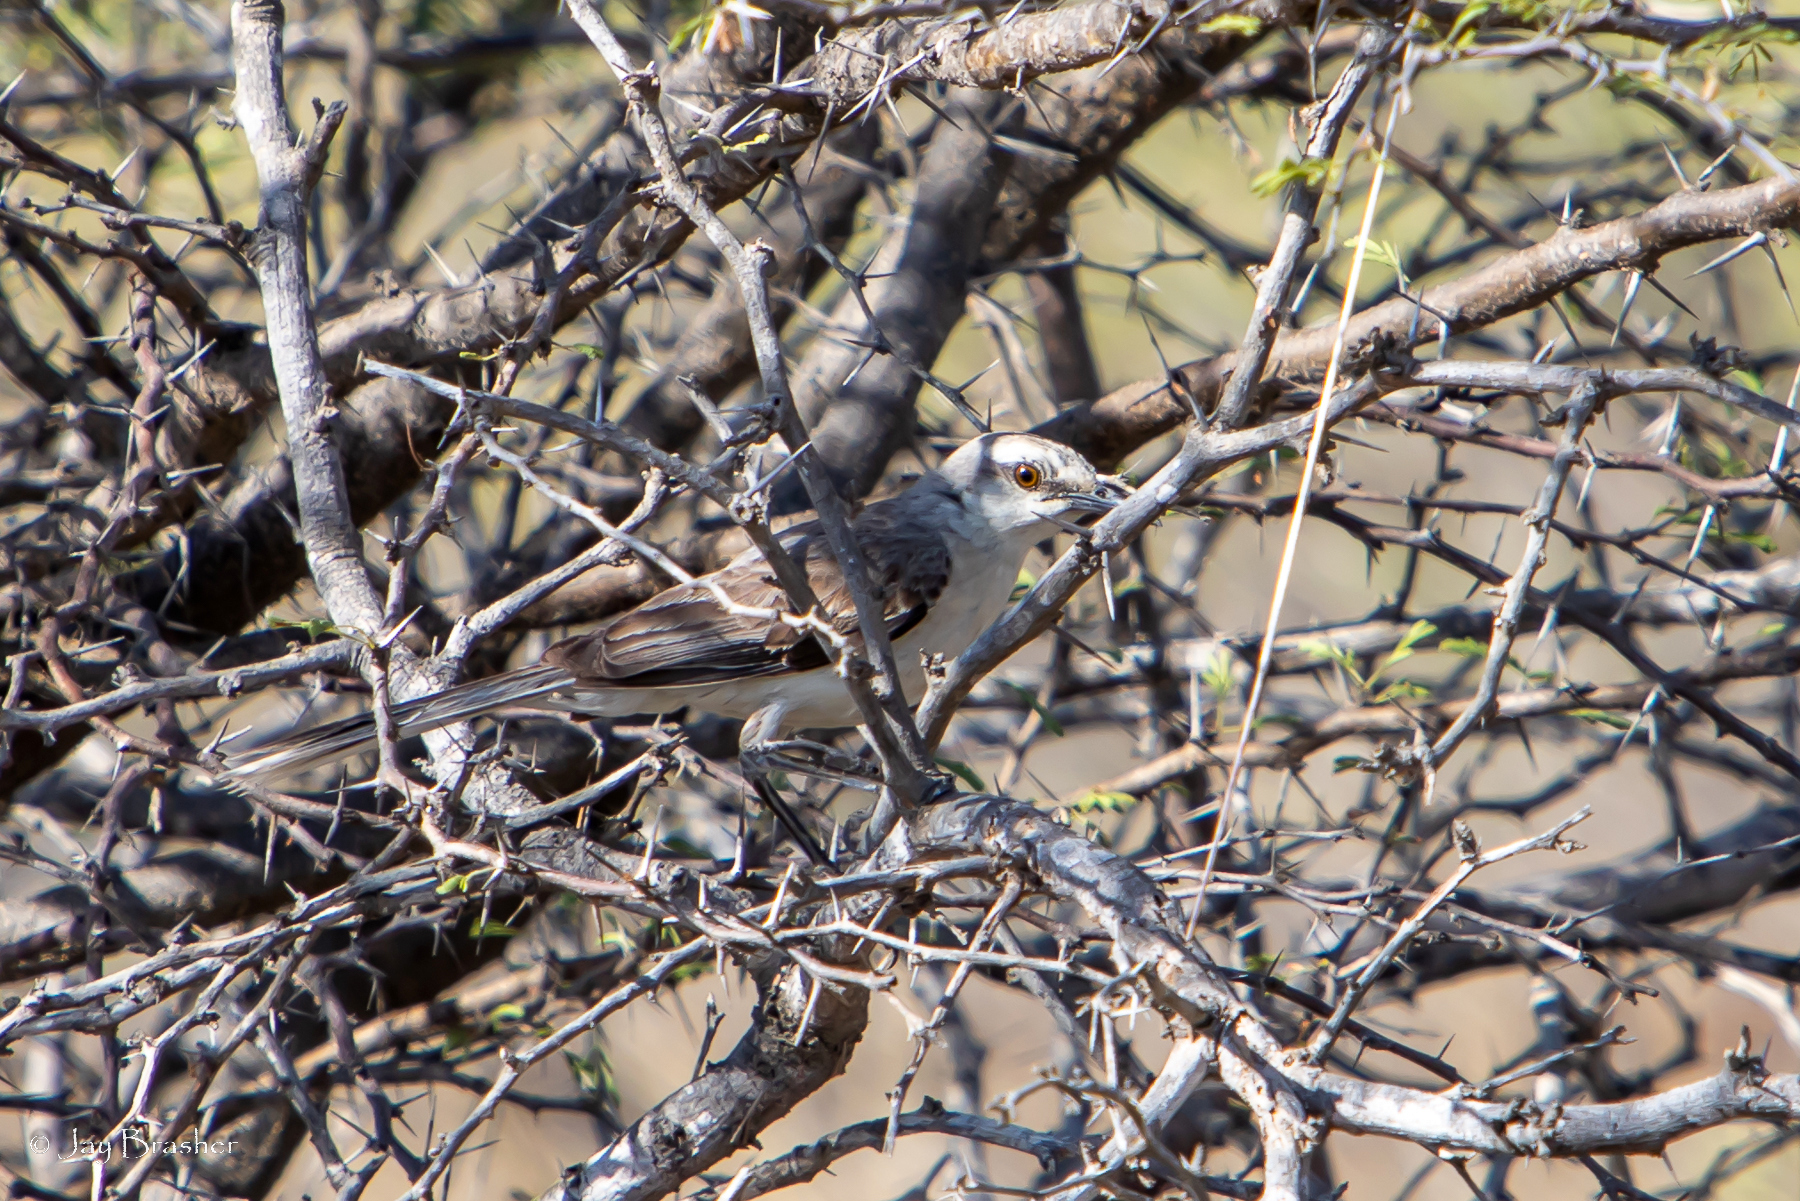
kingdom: Animalia
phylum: Chordata
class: Aves
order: Passeriformes
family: Mimidae
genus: Mimus
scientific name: Mimus gilvus
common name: Tropical mockingbird
